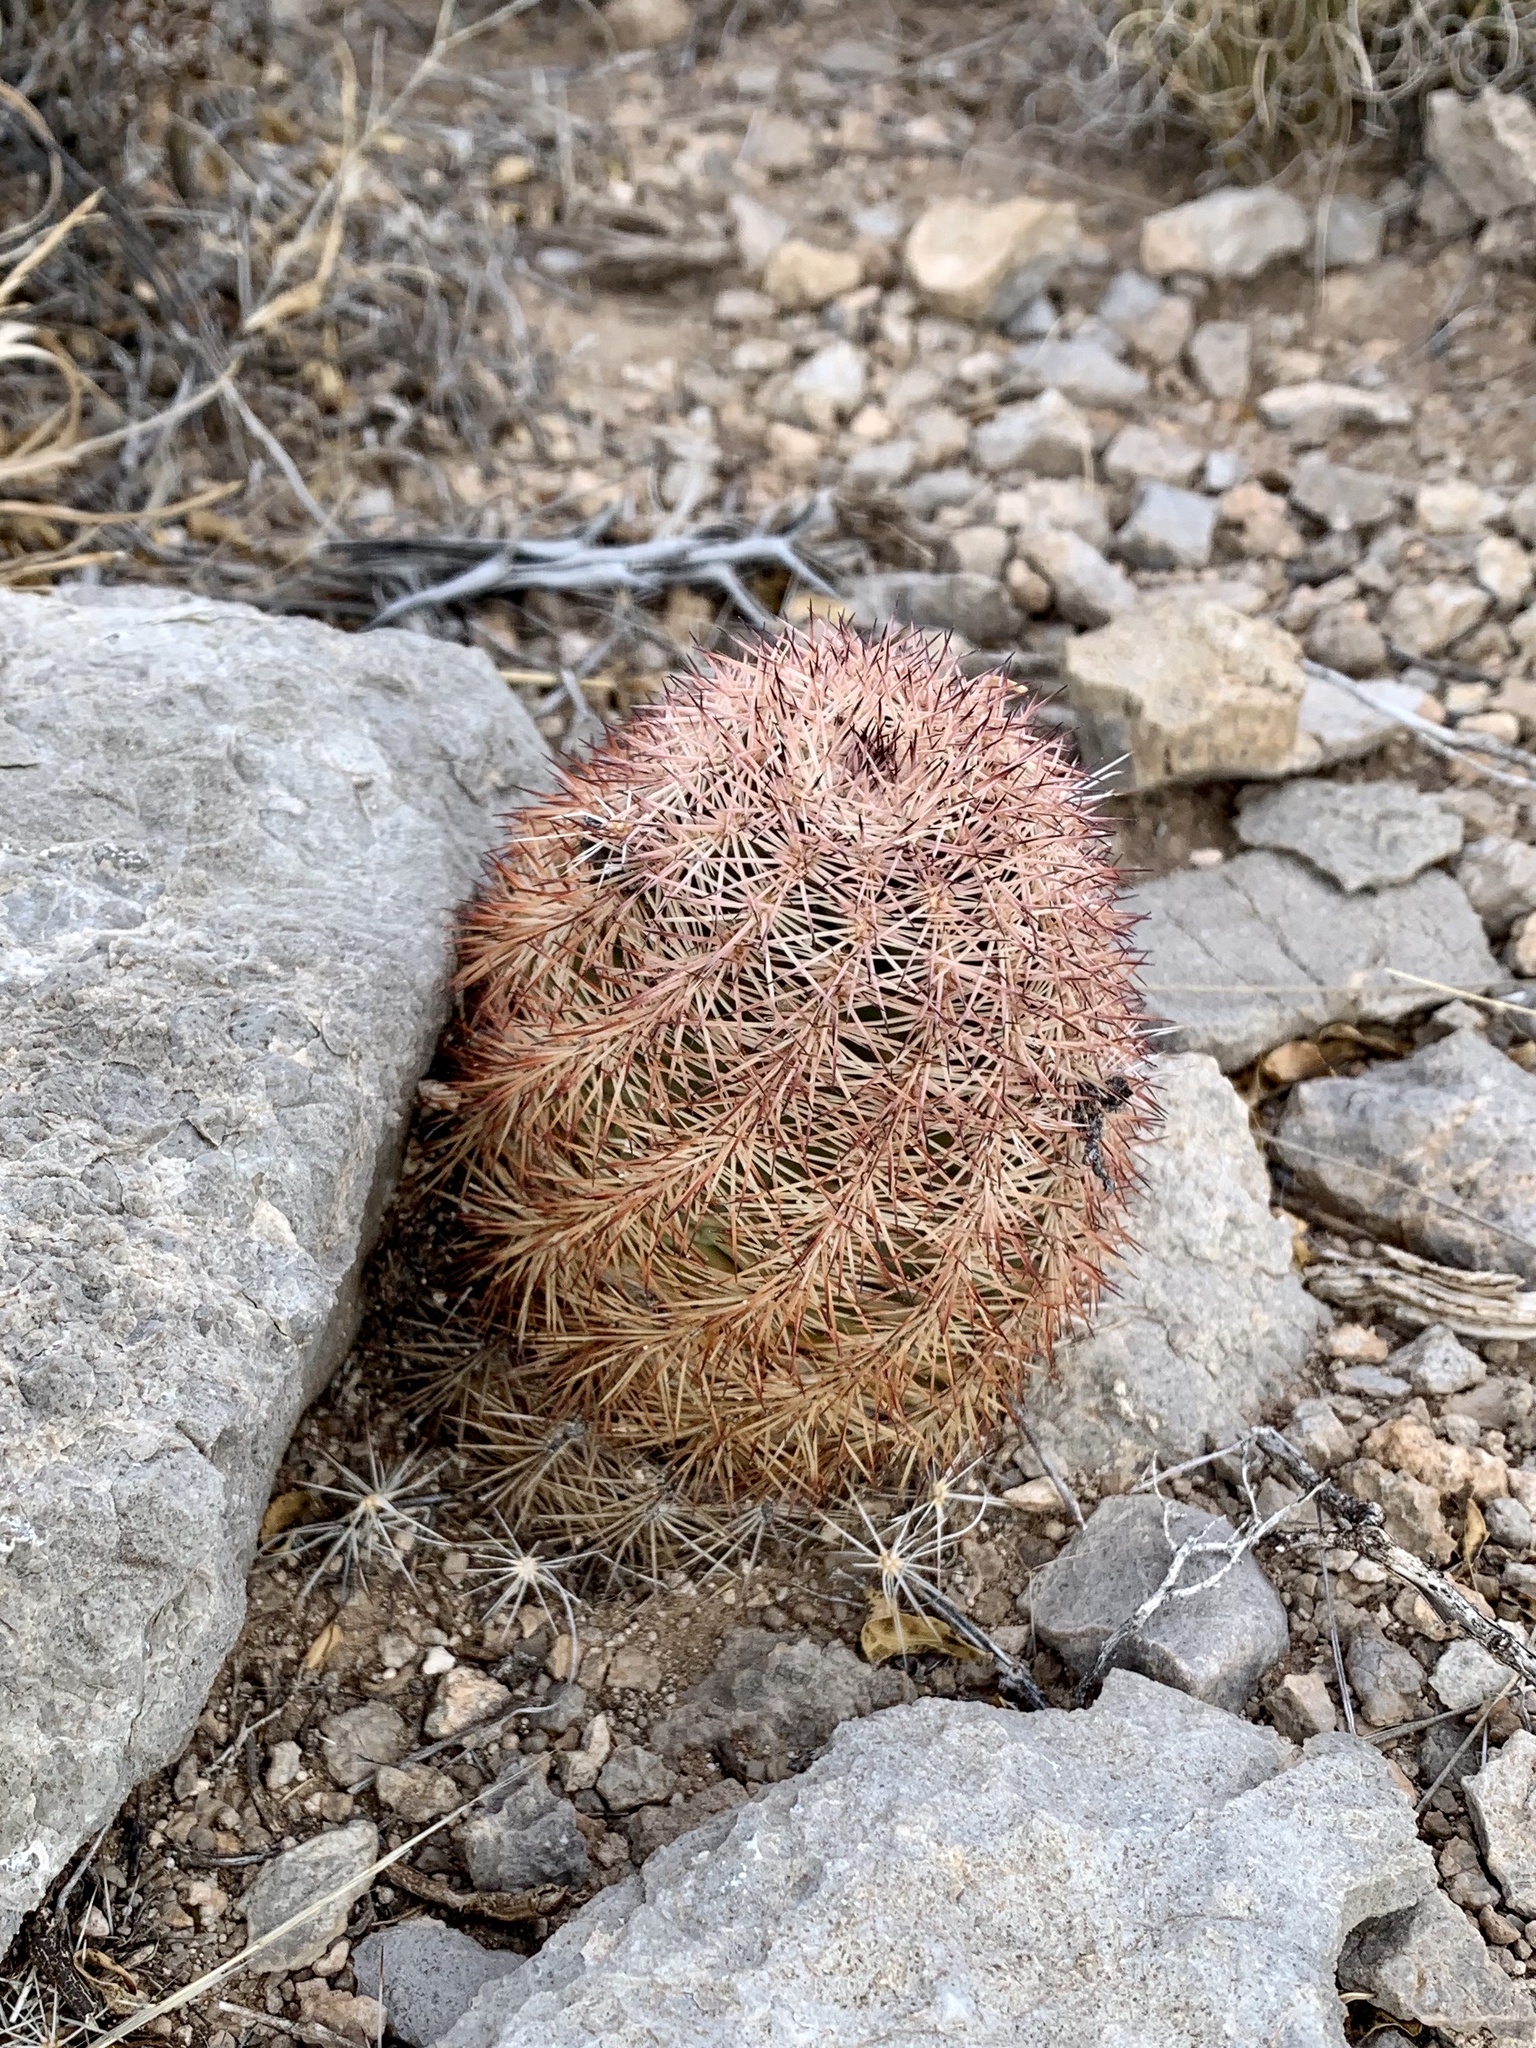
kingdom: Plantae
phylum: Tracheophyta
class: Magnoliopsida
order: Caryophyllales
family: Cactaceae
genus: Echinocereus
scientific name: Echinocereus dasyacanthus
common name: Spiny hedgehog cactus
